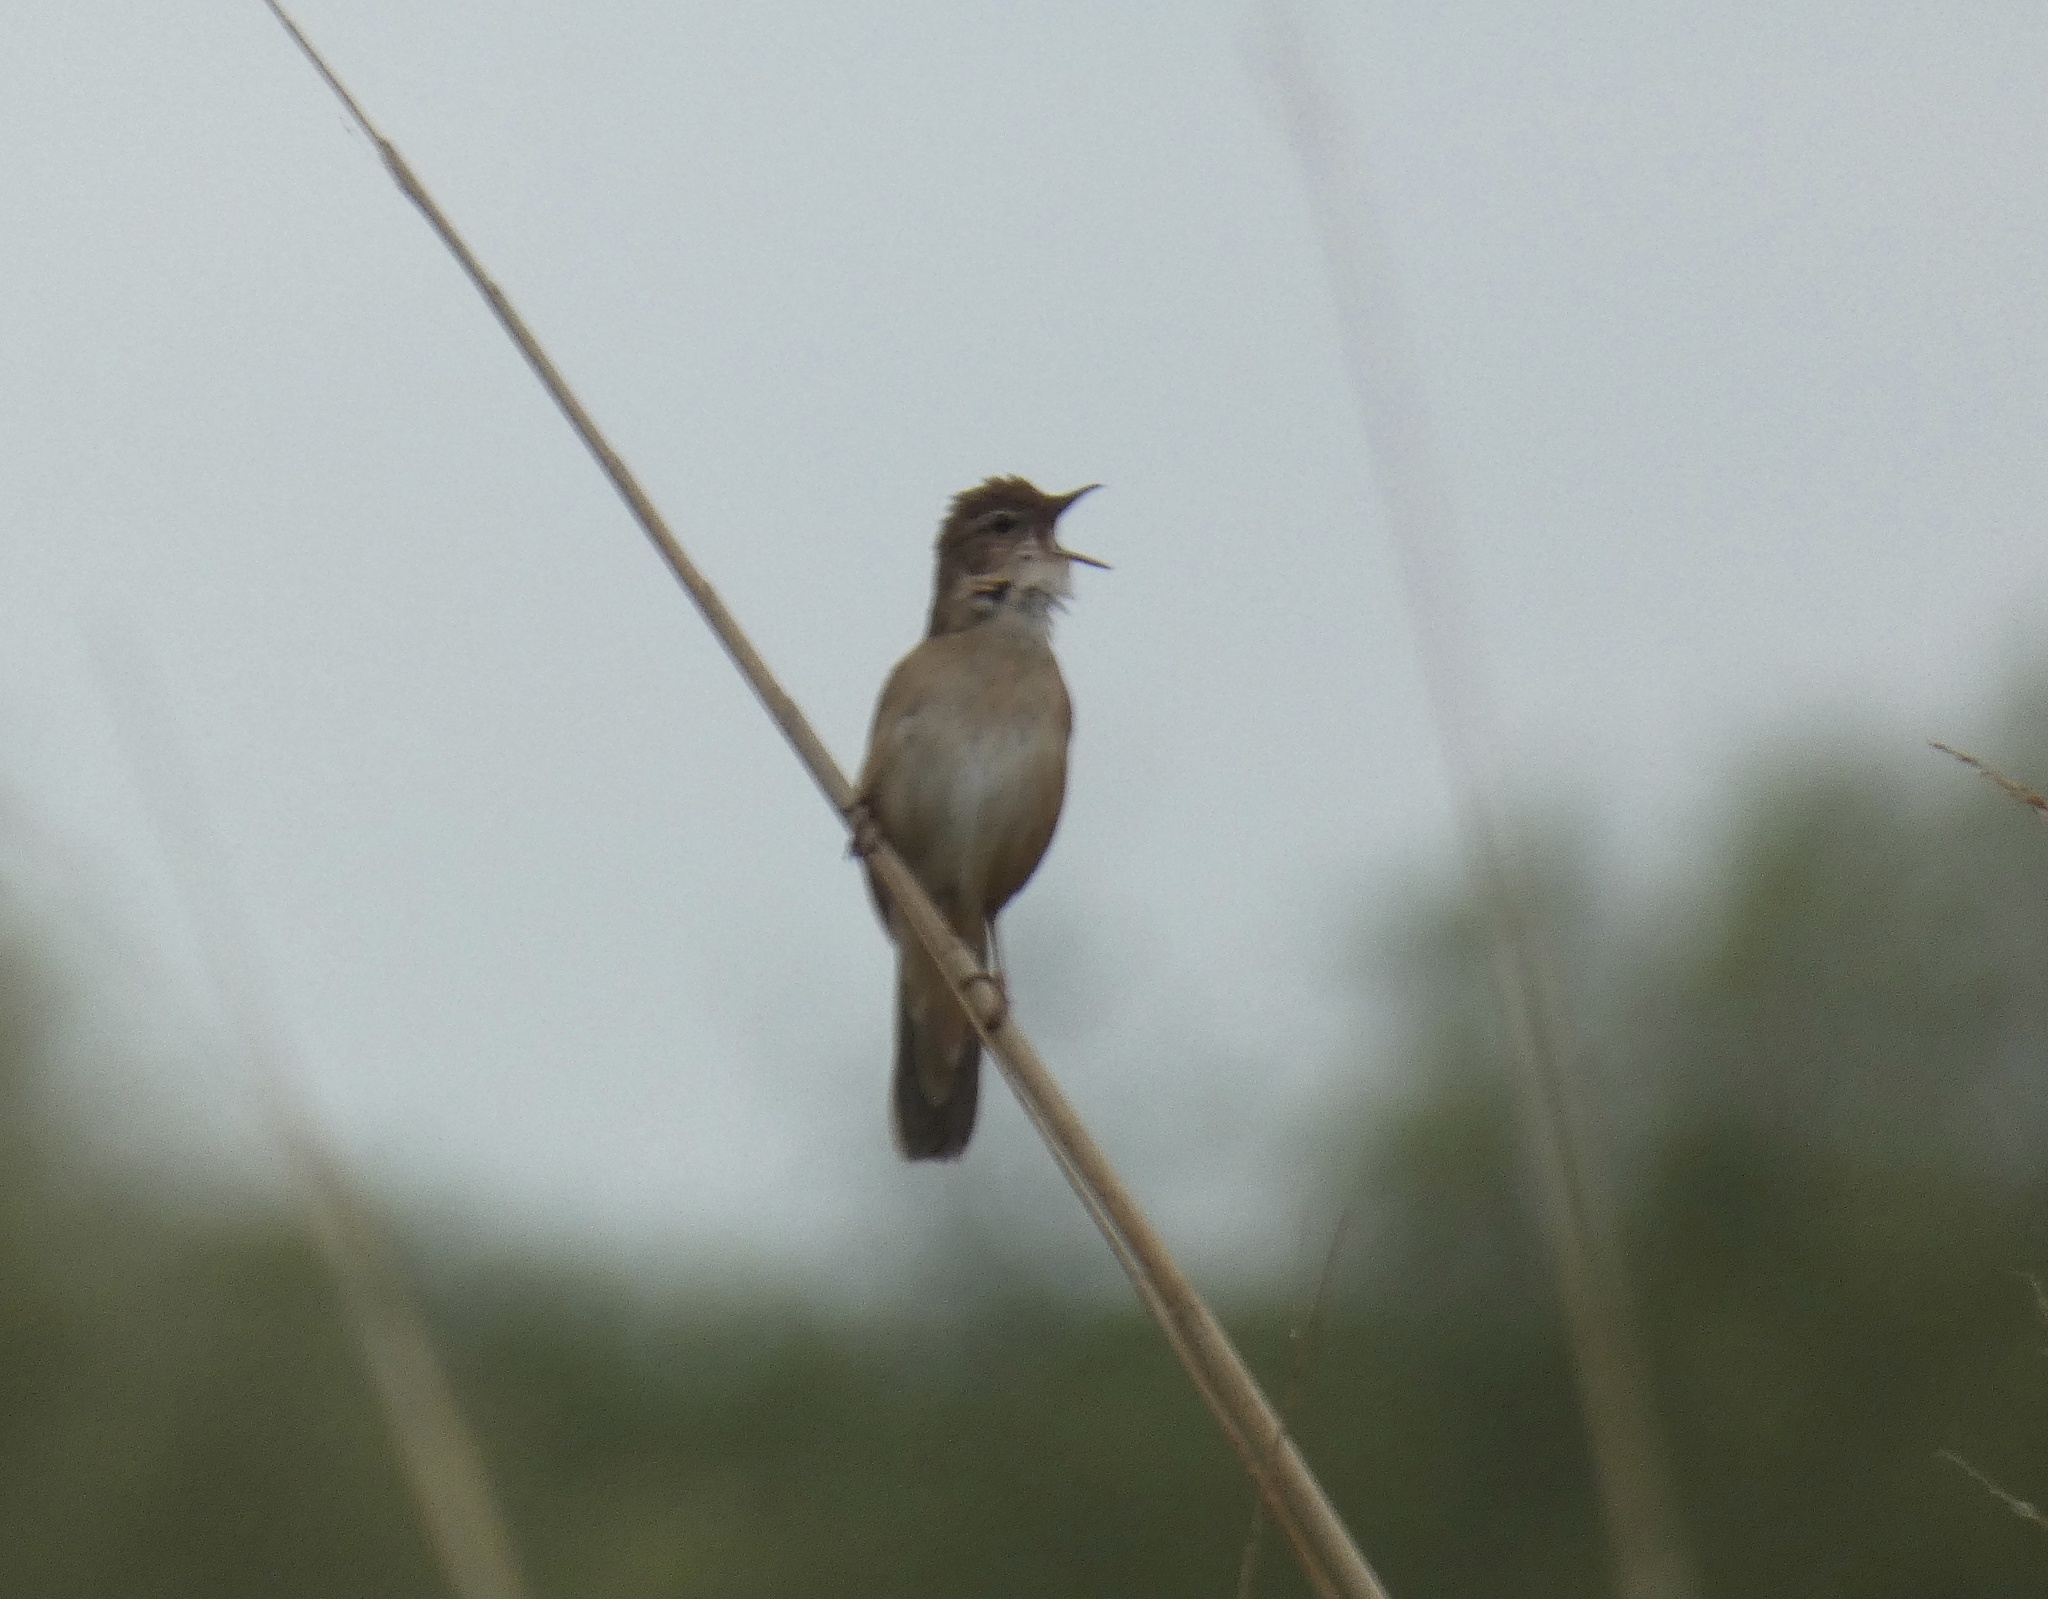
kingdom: Animalia
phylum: Chordata
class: Aves
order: Passeriformes
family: Locustellidae
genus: Locustella
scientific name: Locustella luscinioides
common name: Savi's warbler
